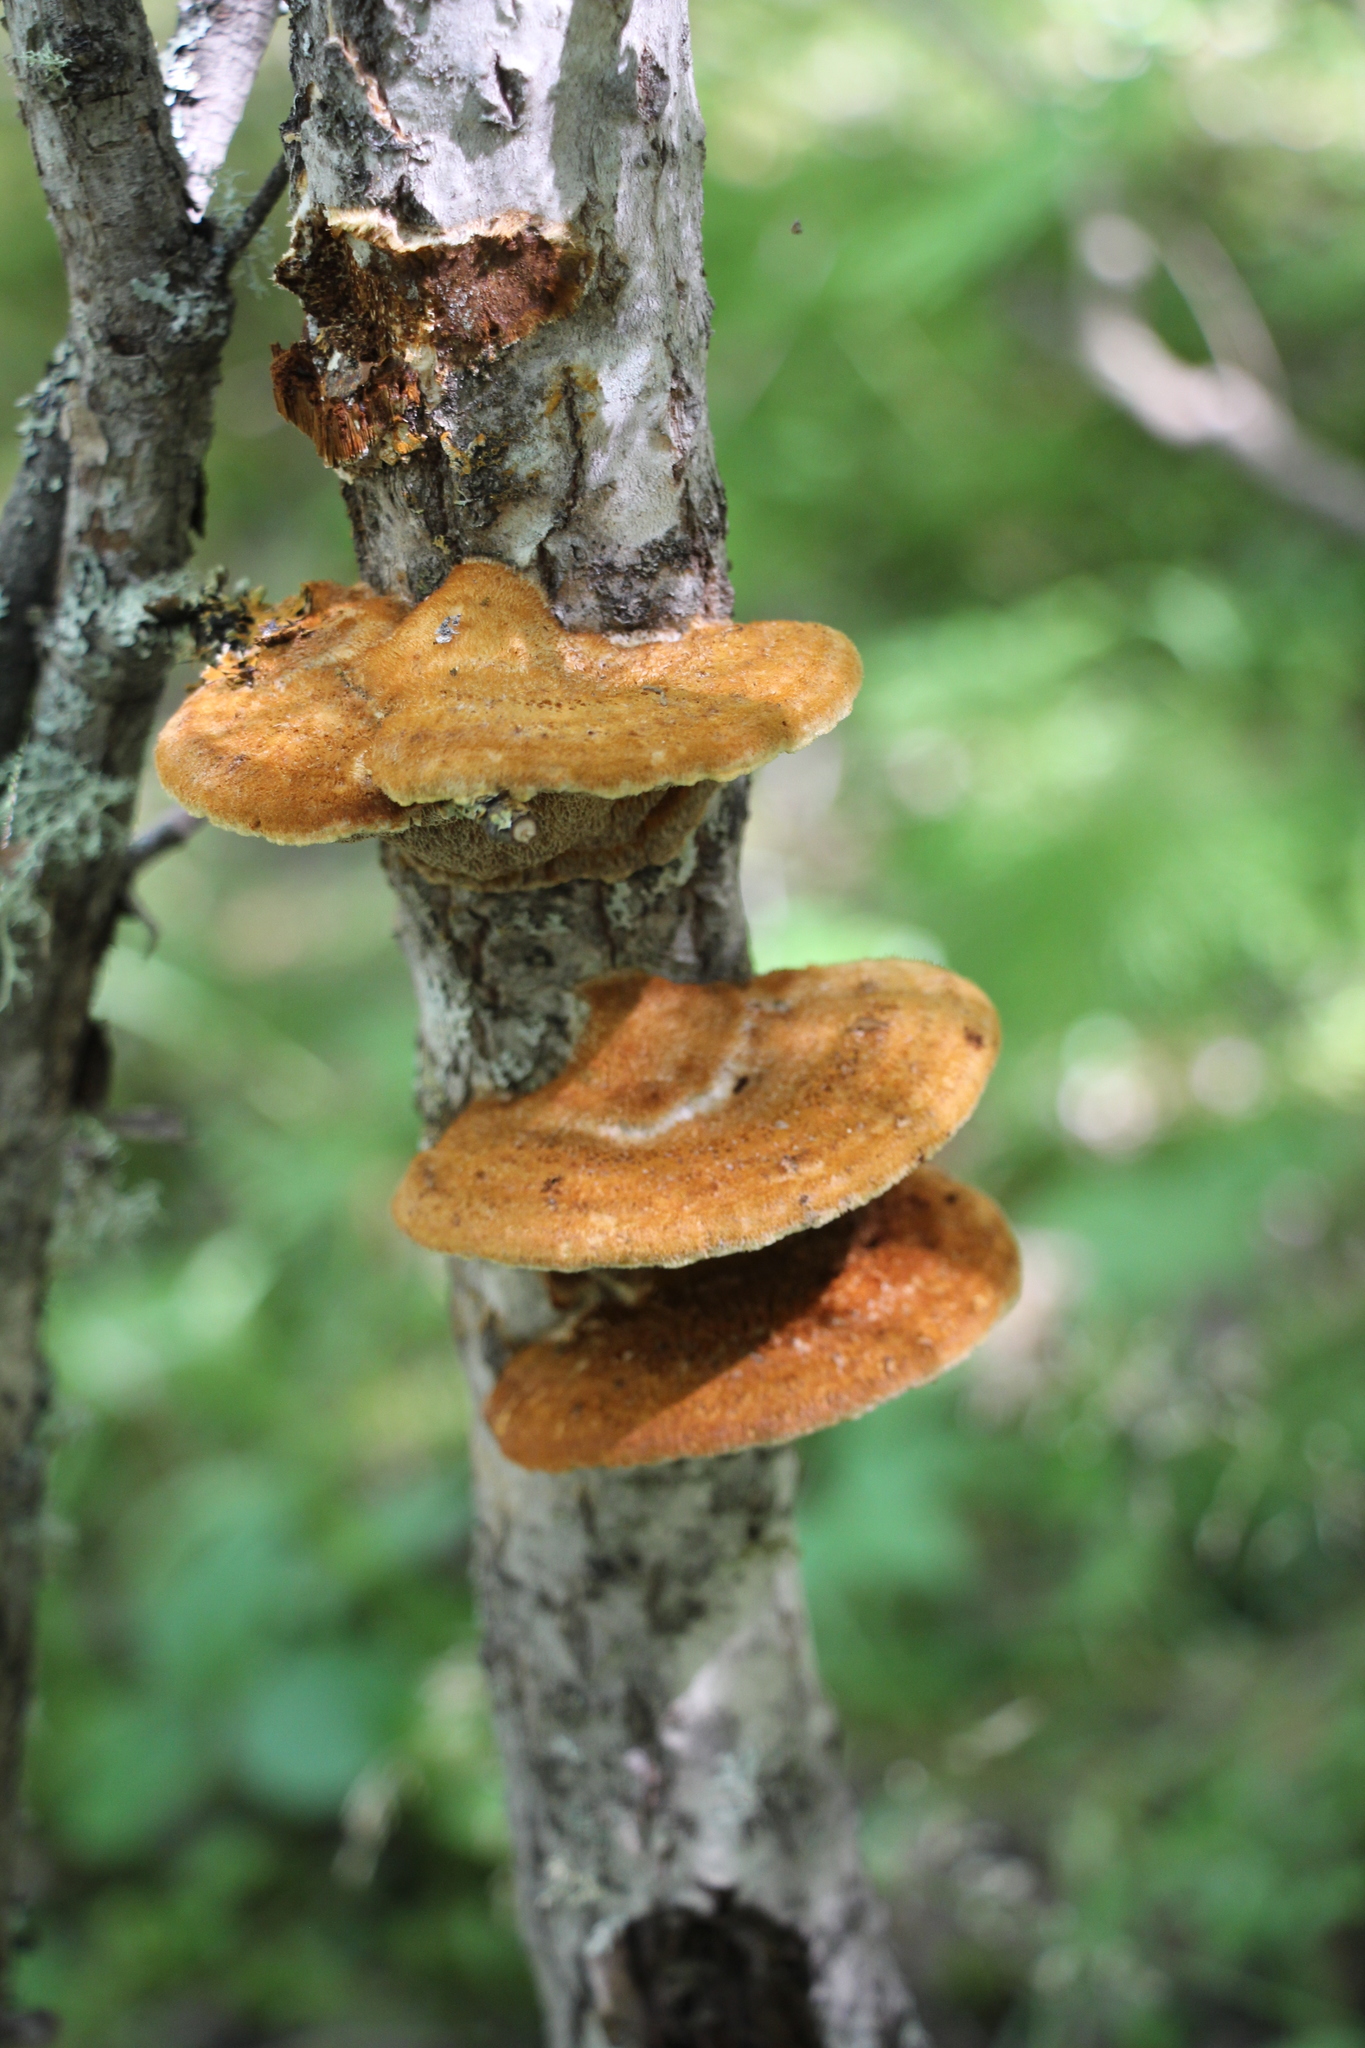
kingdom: Fungi
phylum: Basidiomycota
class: Agaricomycetes
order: Hymenochaetales
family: Hymenochaetaceae
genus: Inocutis
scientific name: Inocutis rheades
